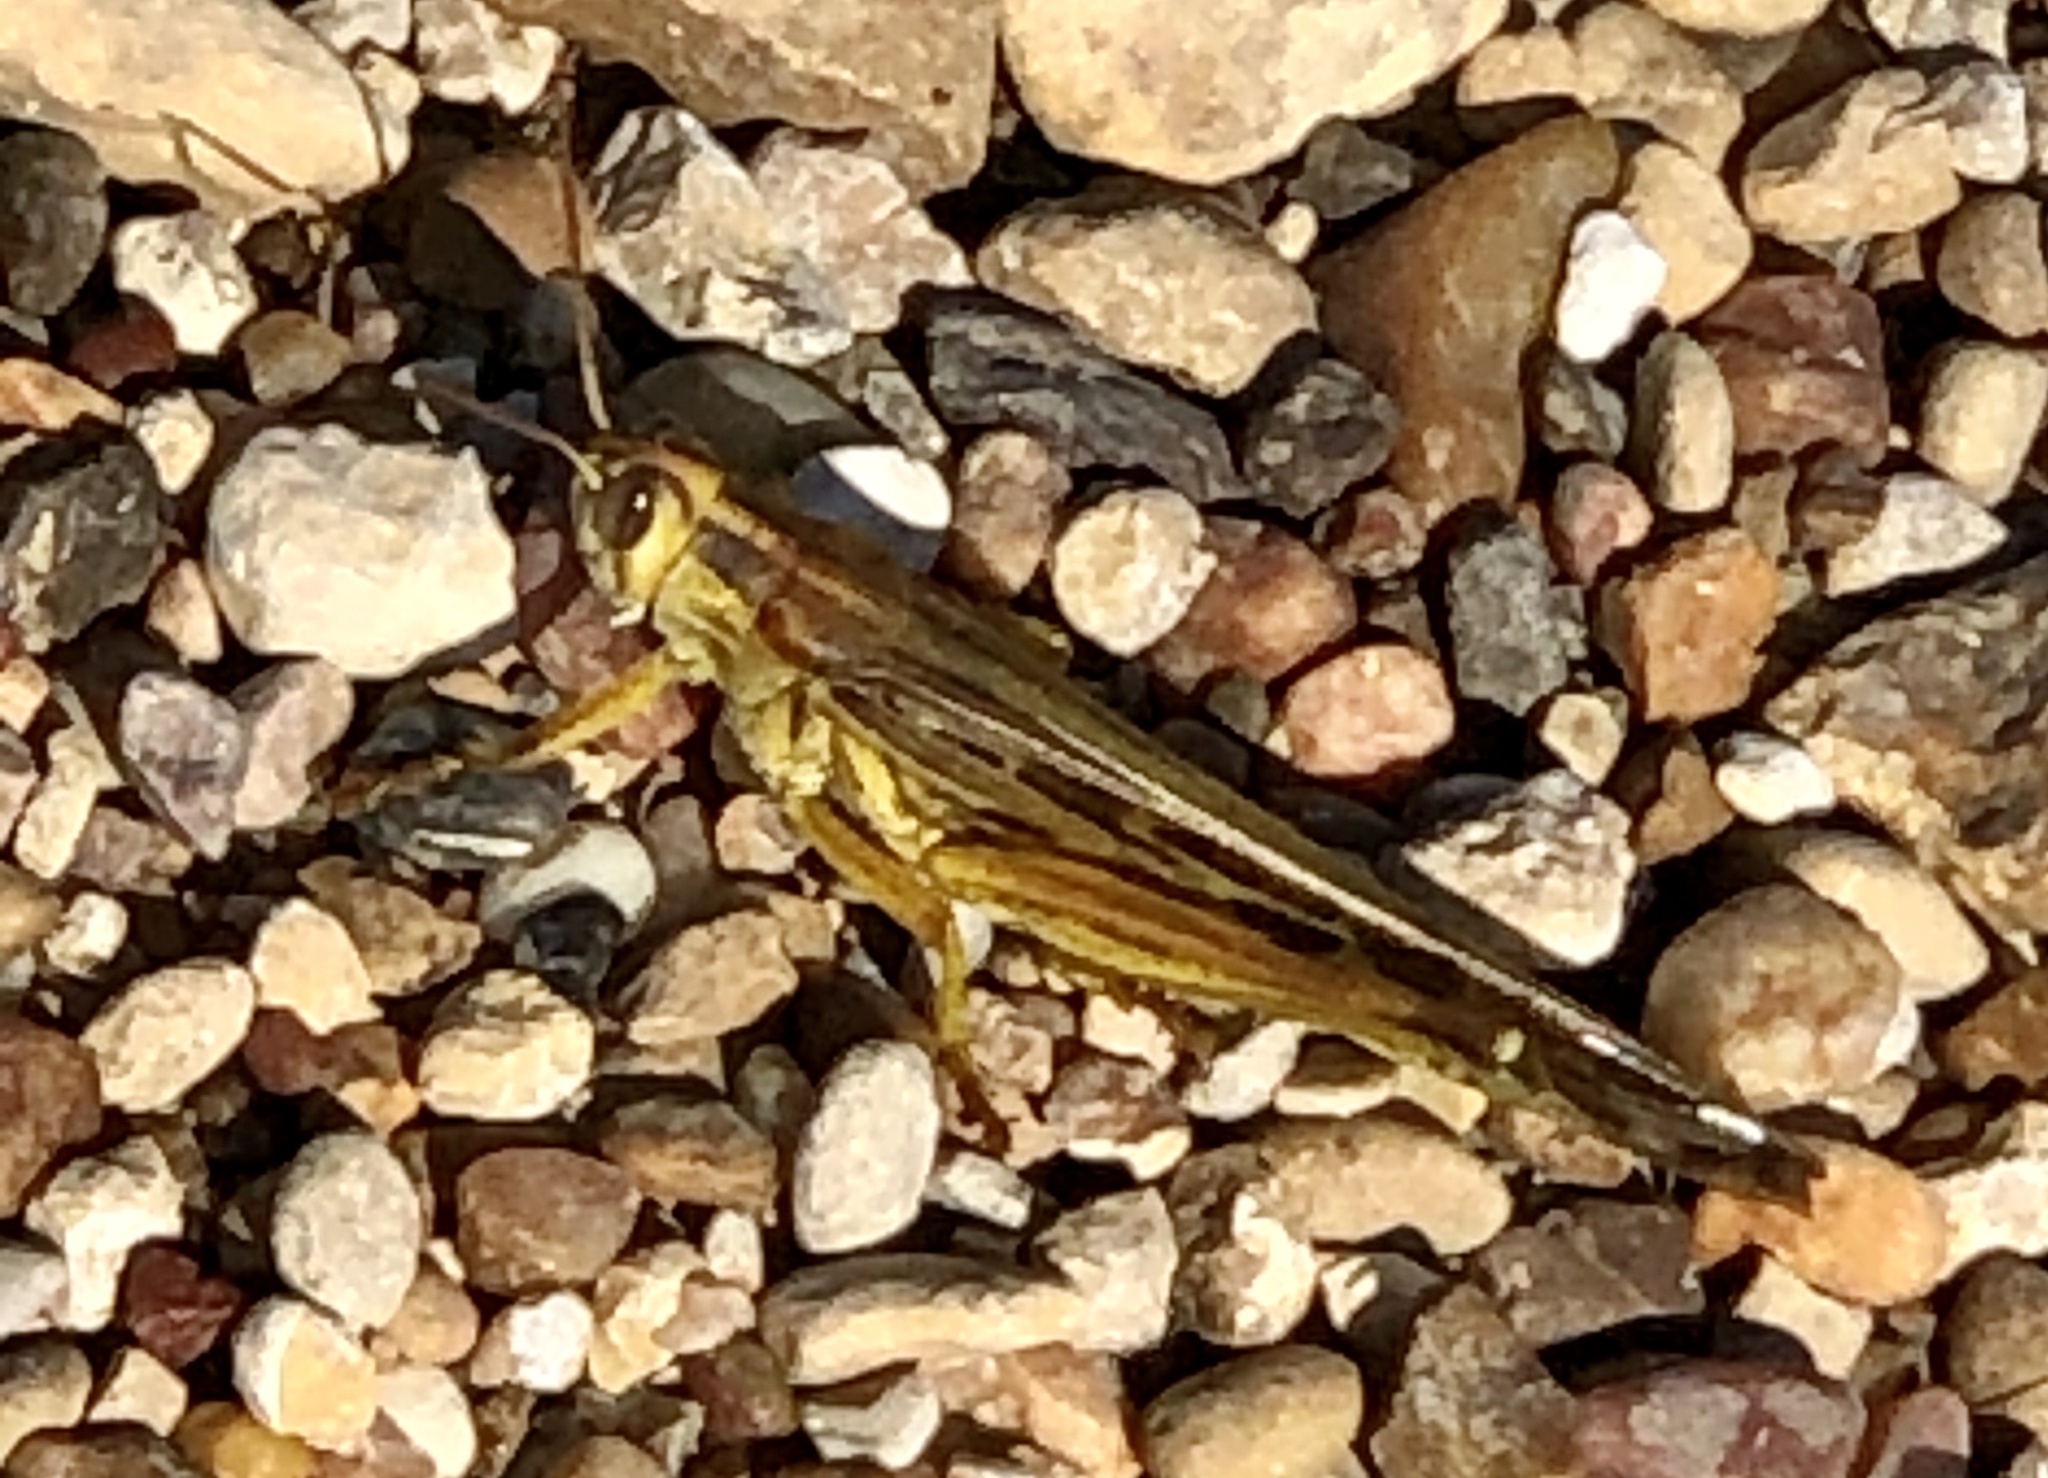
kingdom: Animalia
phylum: Arthropoda
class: Insecta
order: Orthoptera
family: Acrididae
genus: Schistocerca
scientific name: Schistocerca americana
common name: American bird locust
